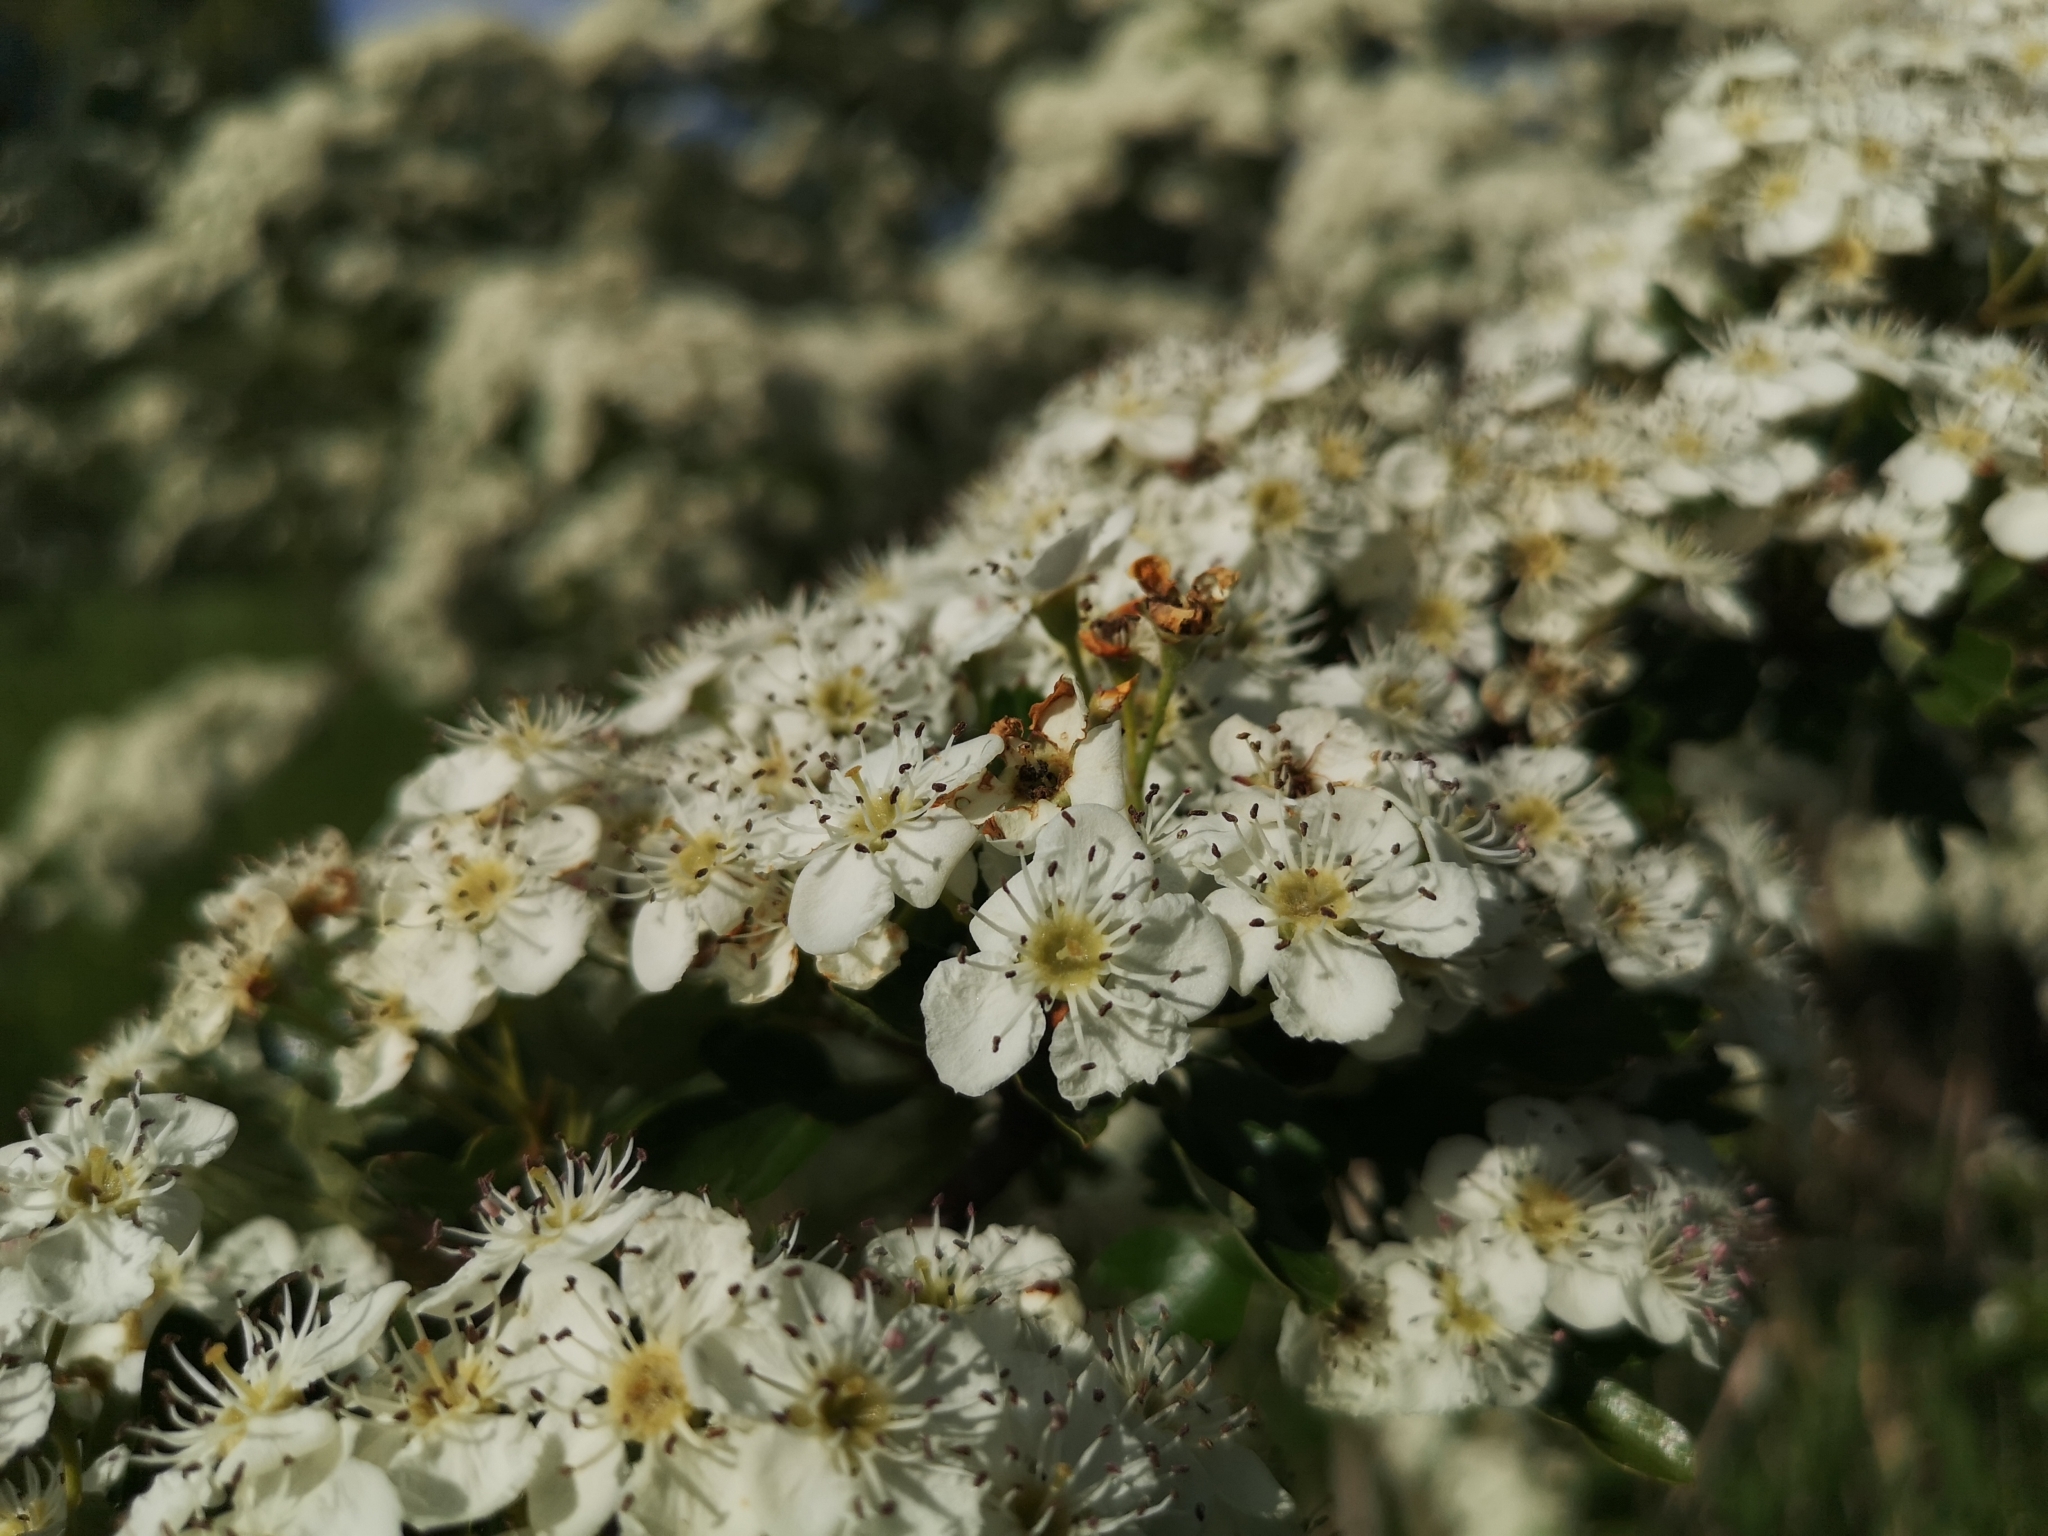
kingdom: Plantae
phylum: Tracheophyta
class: Magnoliopsida
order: Rosales
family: Rosaceae
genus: Crataegus
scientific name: Crataegus monogyna
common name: Hawthorn
